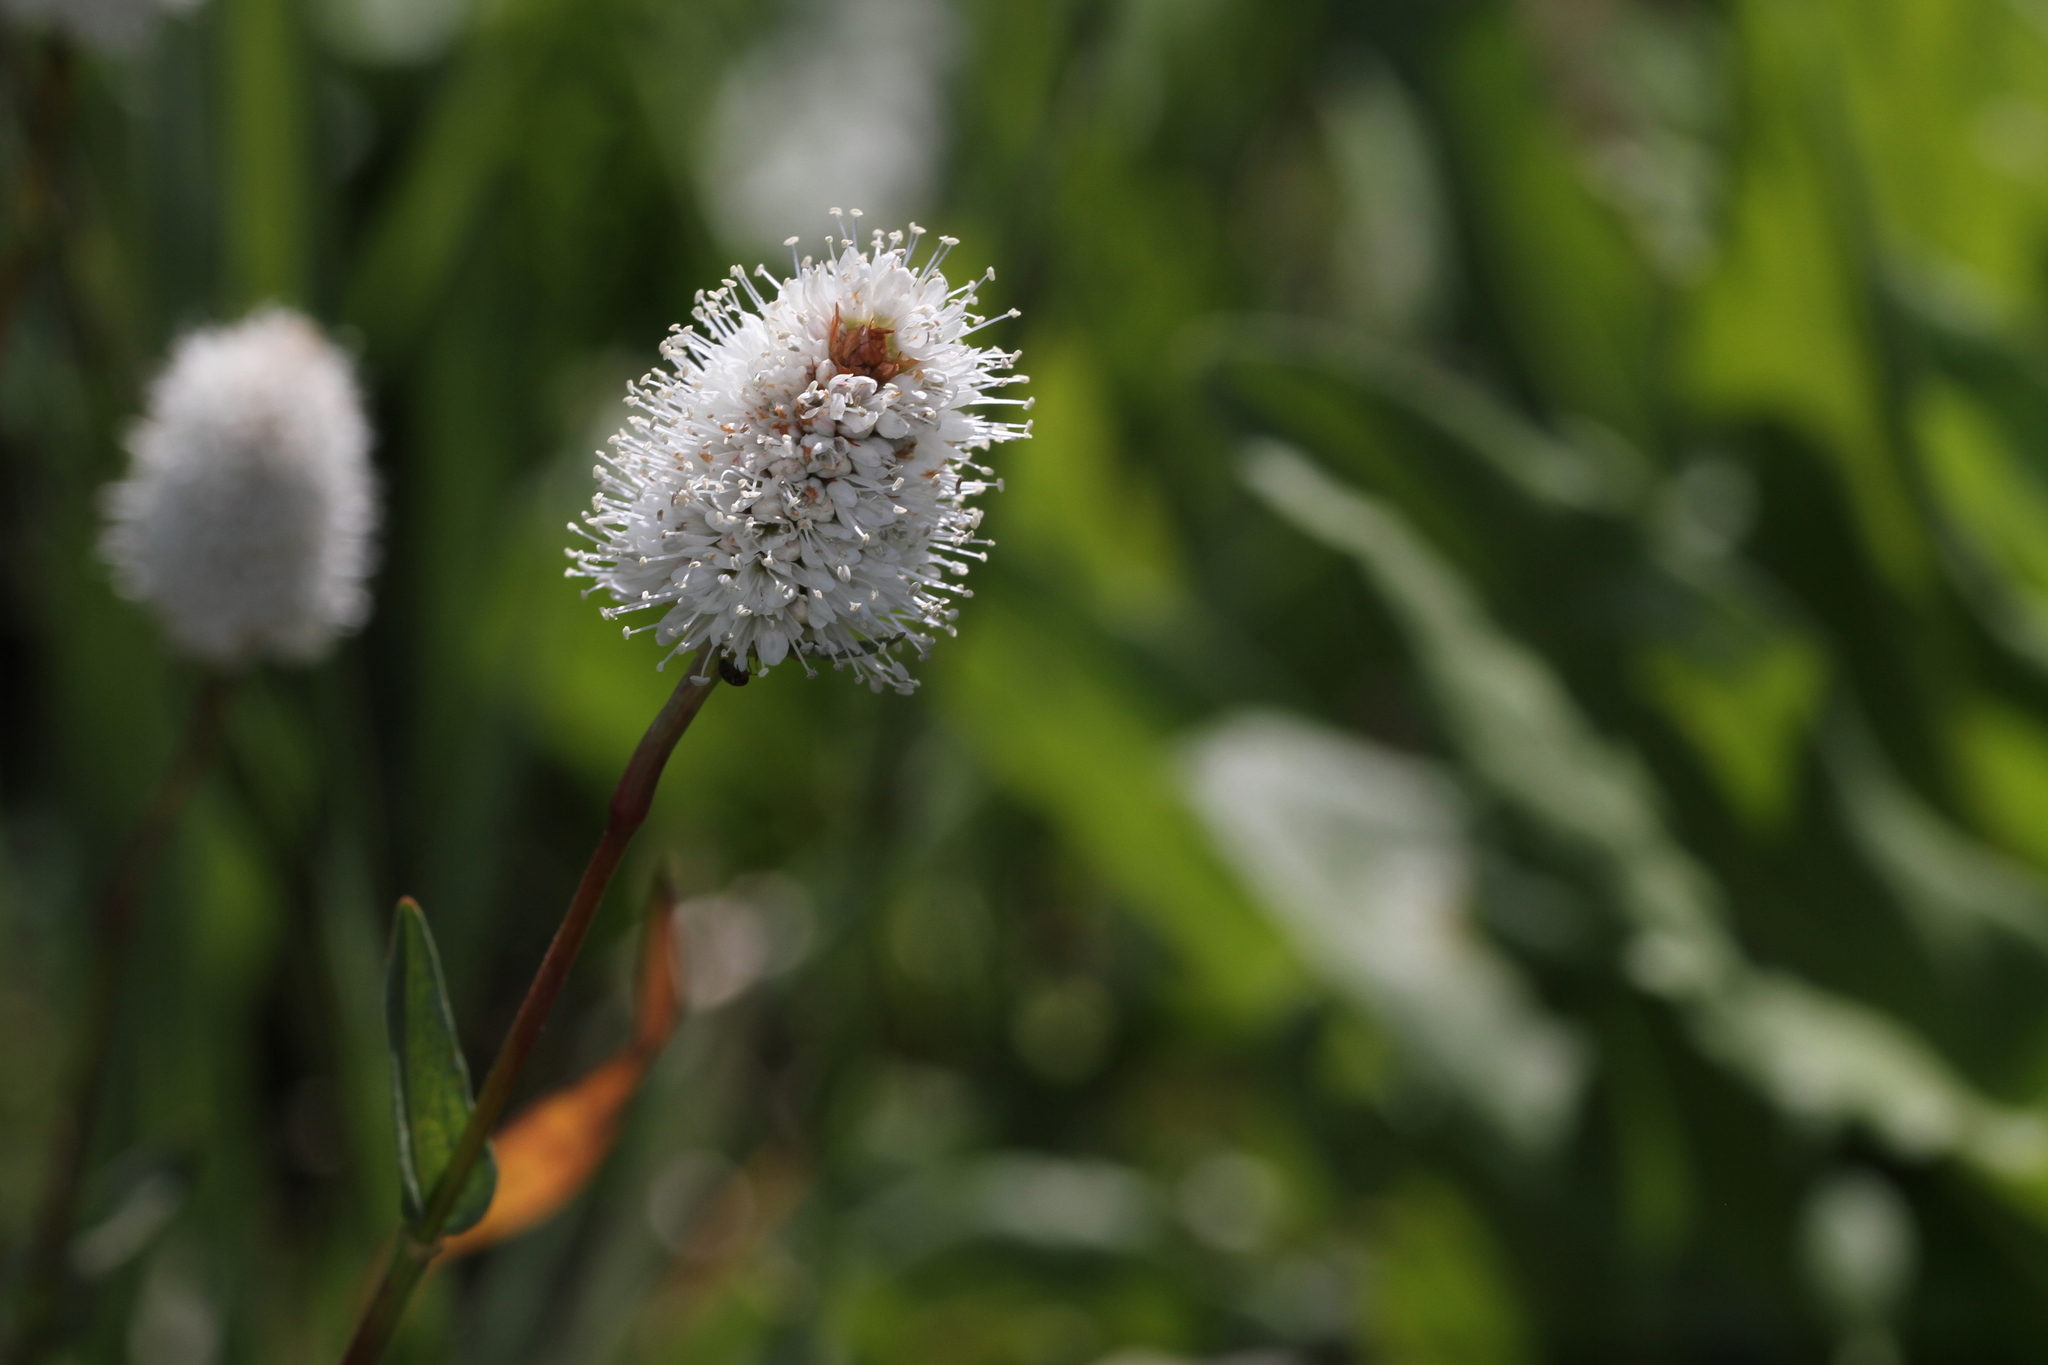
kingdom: Plantae
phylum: Tracheophyta
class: Magnoliopsida
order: Caryophyllales
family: Polygonaceae
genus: Bistorta
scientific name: Bistorta bistortoides
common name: American bistort
